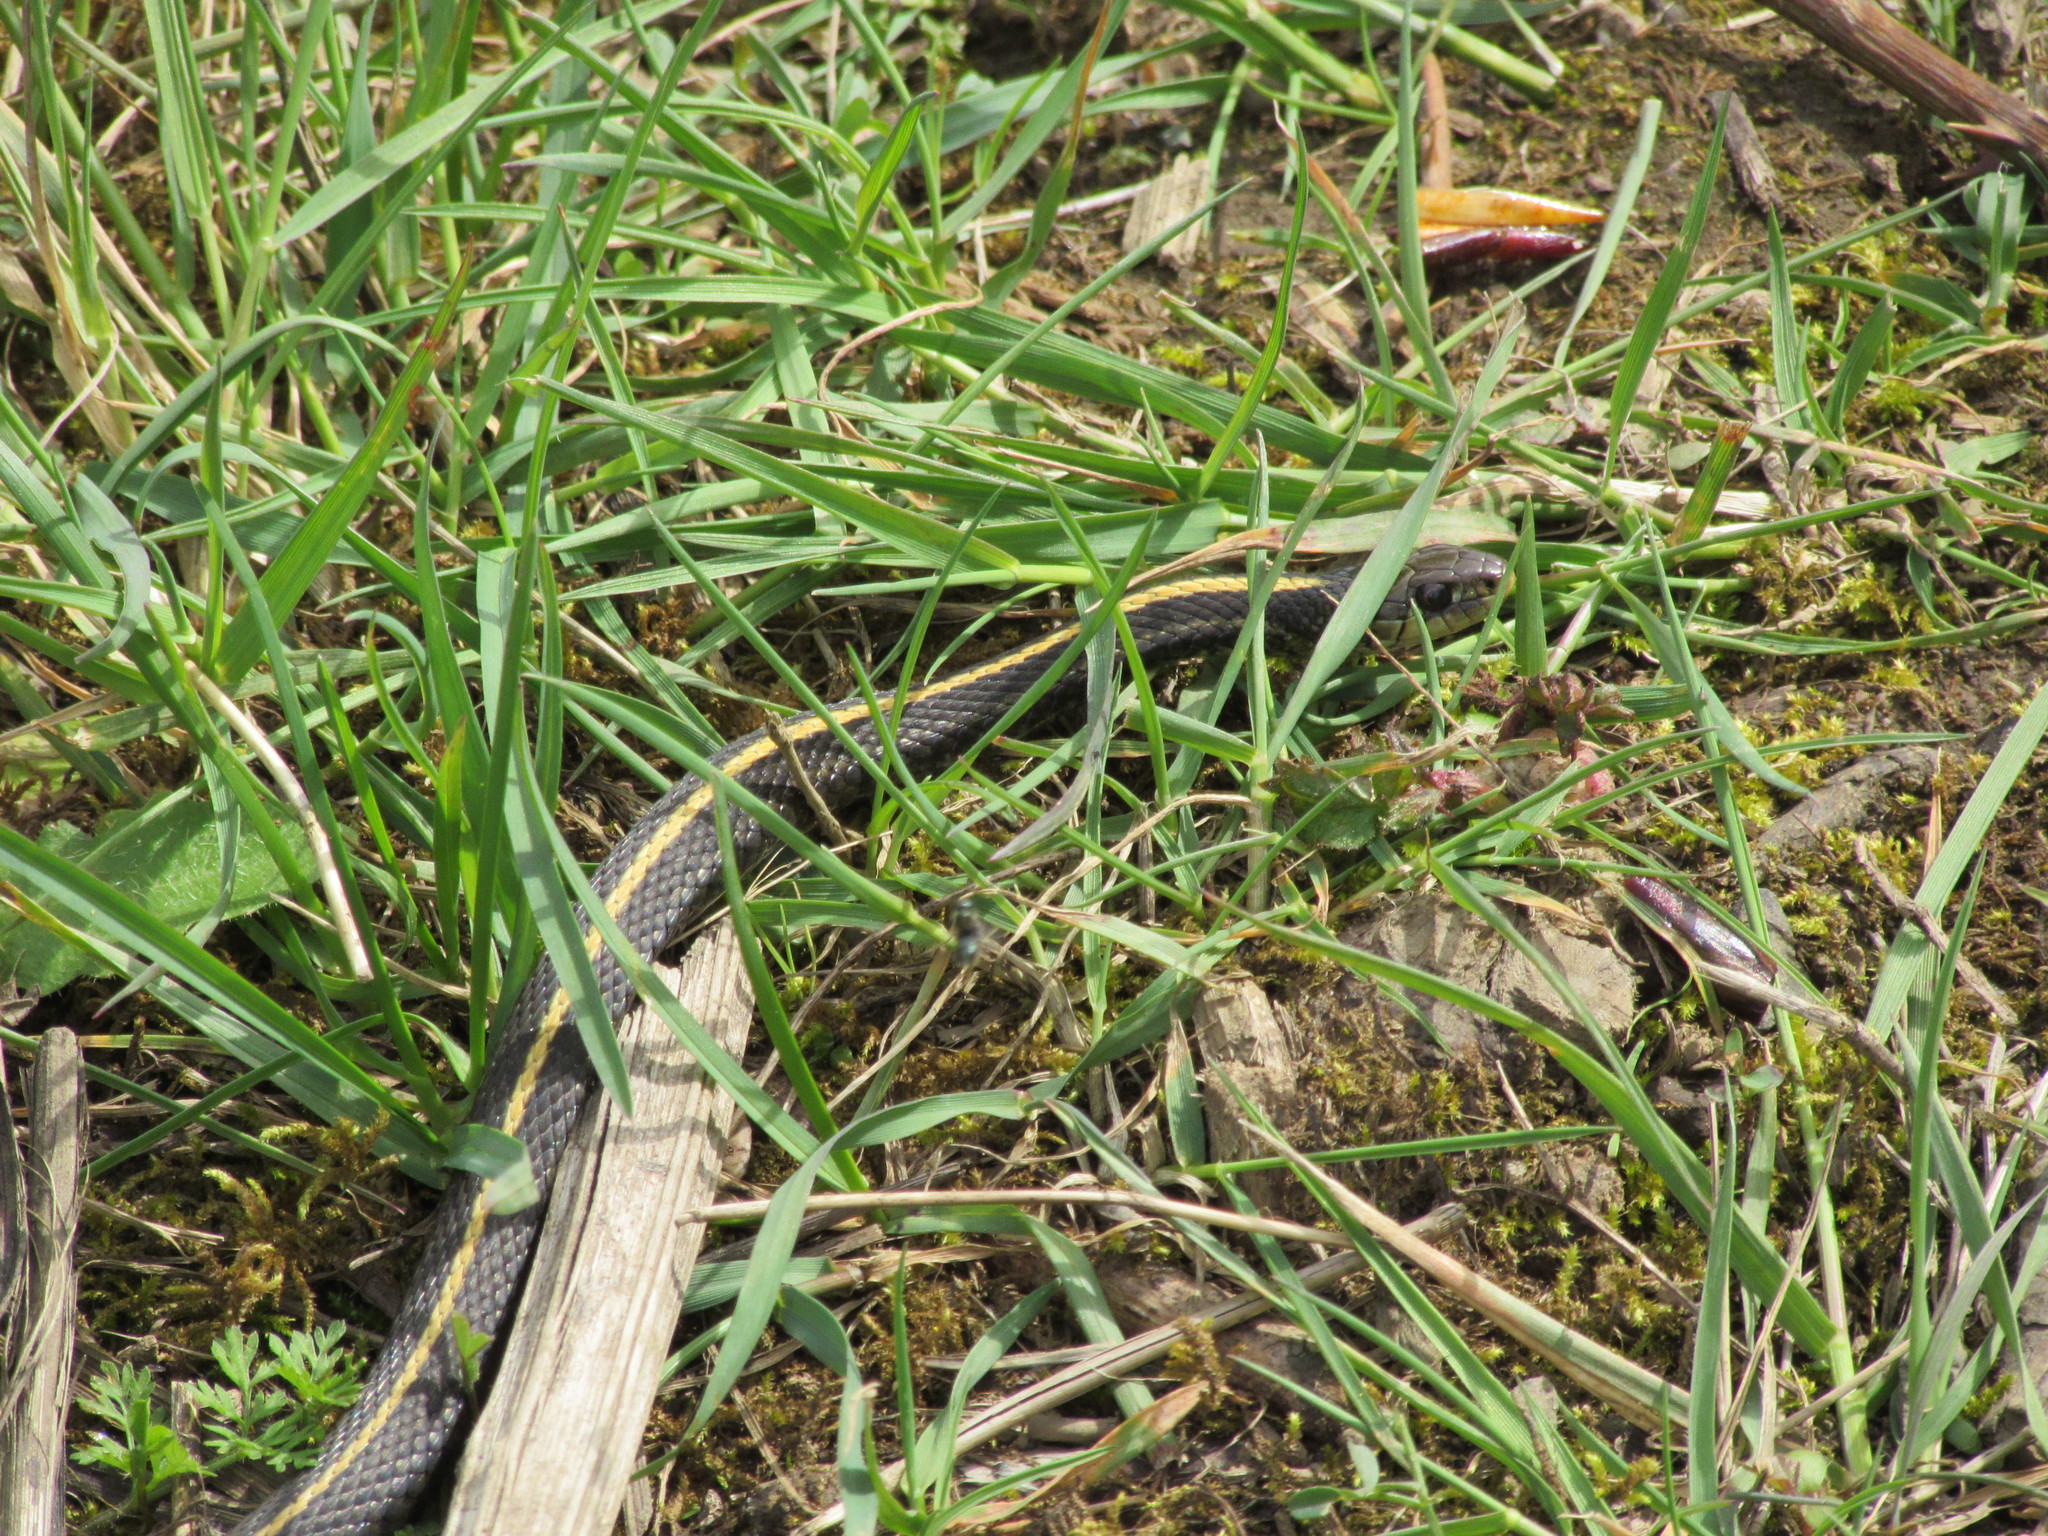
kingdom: Animalia
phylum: Chordata
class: Squamata
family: Colubridae
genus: Thamnophis
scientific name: Thamnophis ordinoides
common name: Northwestern garter snake
